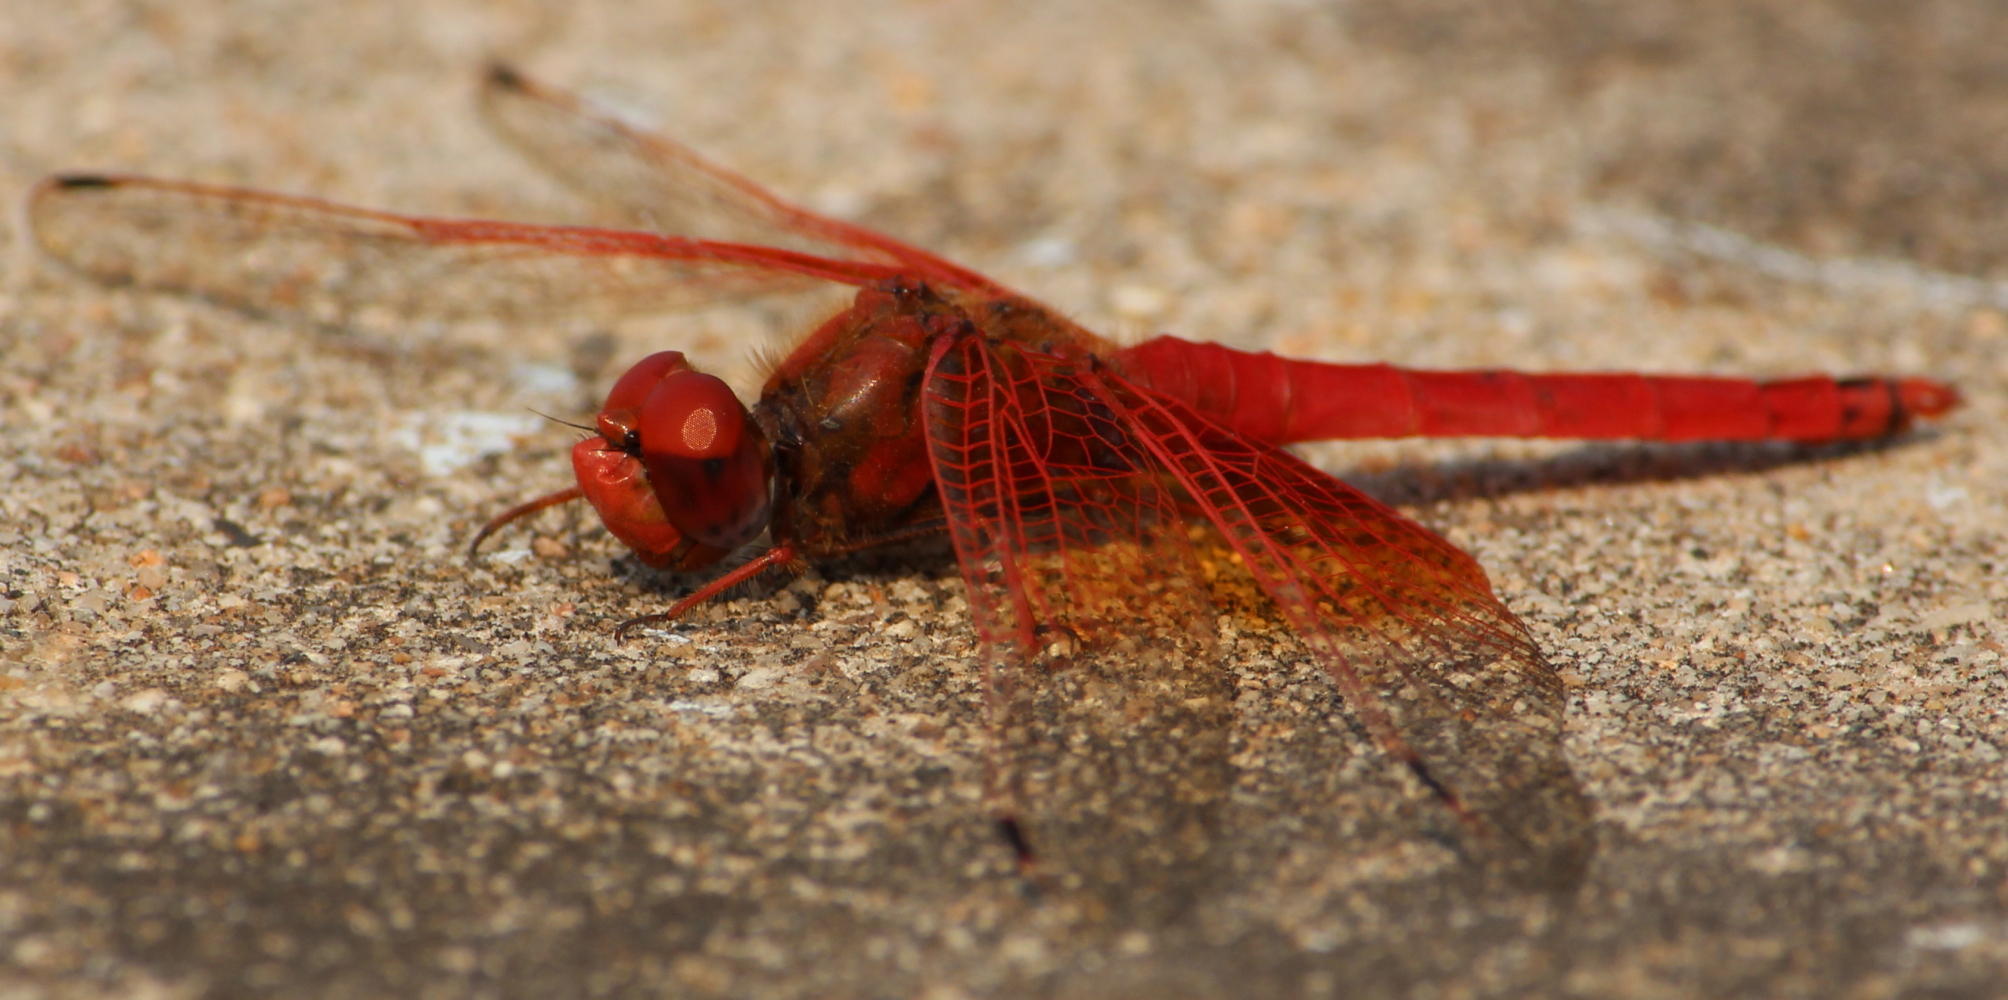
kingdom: Animalia
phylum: Arthropoda
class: Insecta
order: Odonata
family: Libellulidae
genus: Trithemis
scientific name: Trithemis kirbyi
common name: Kirby's dropwing
